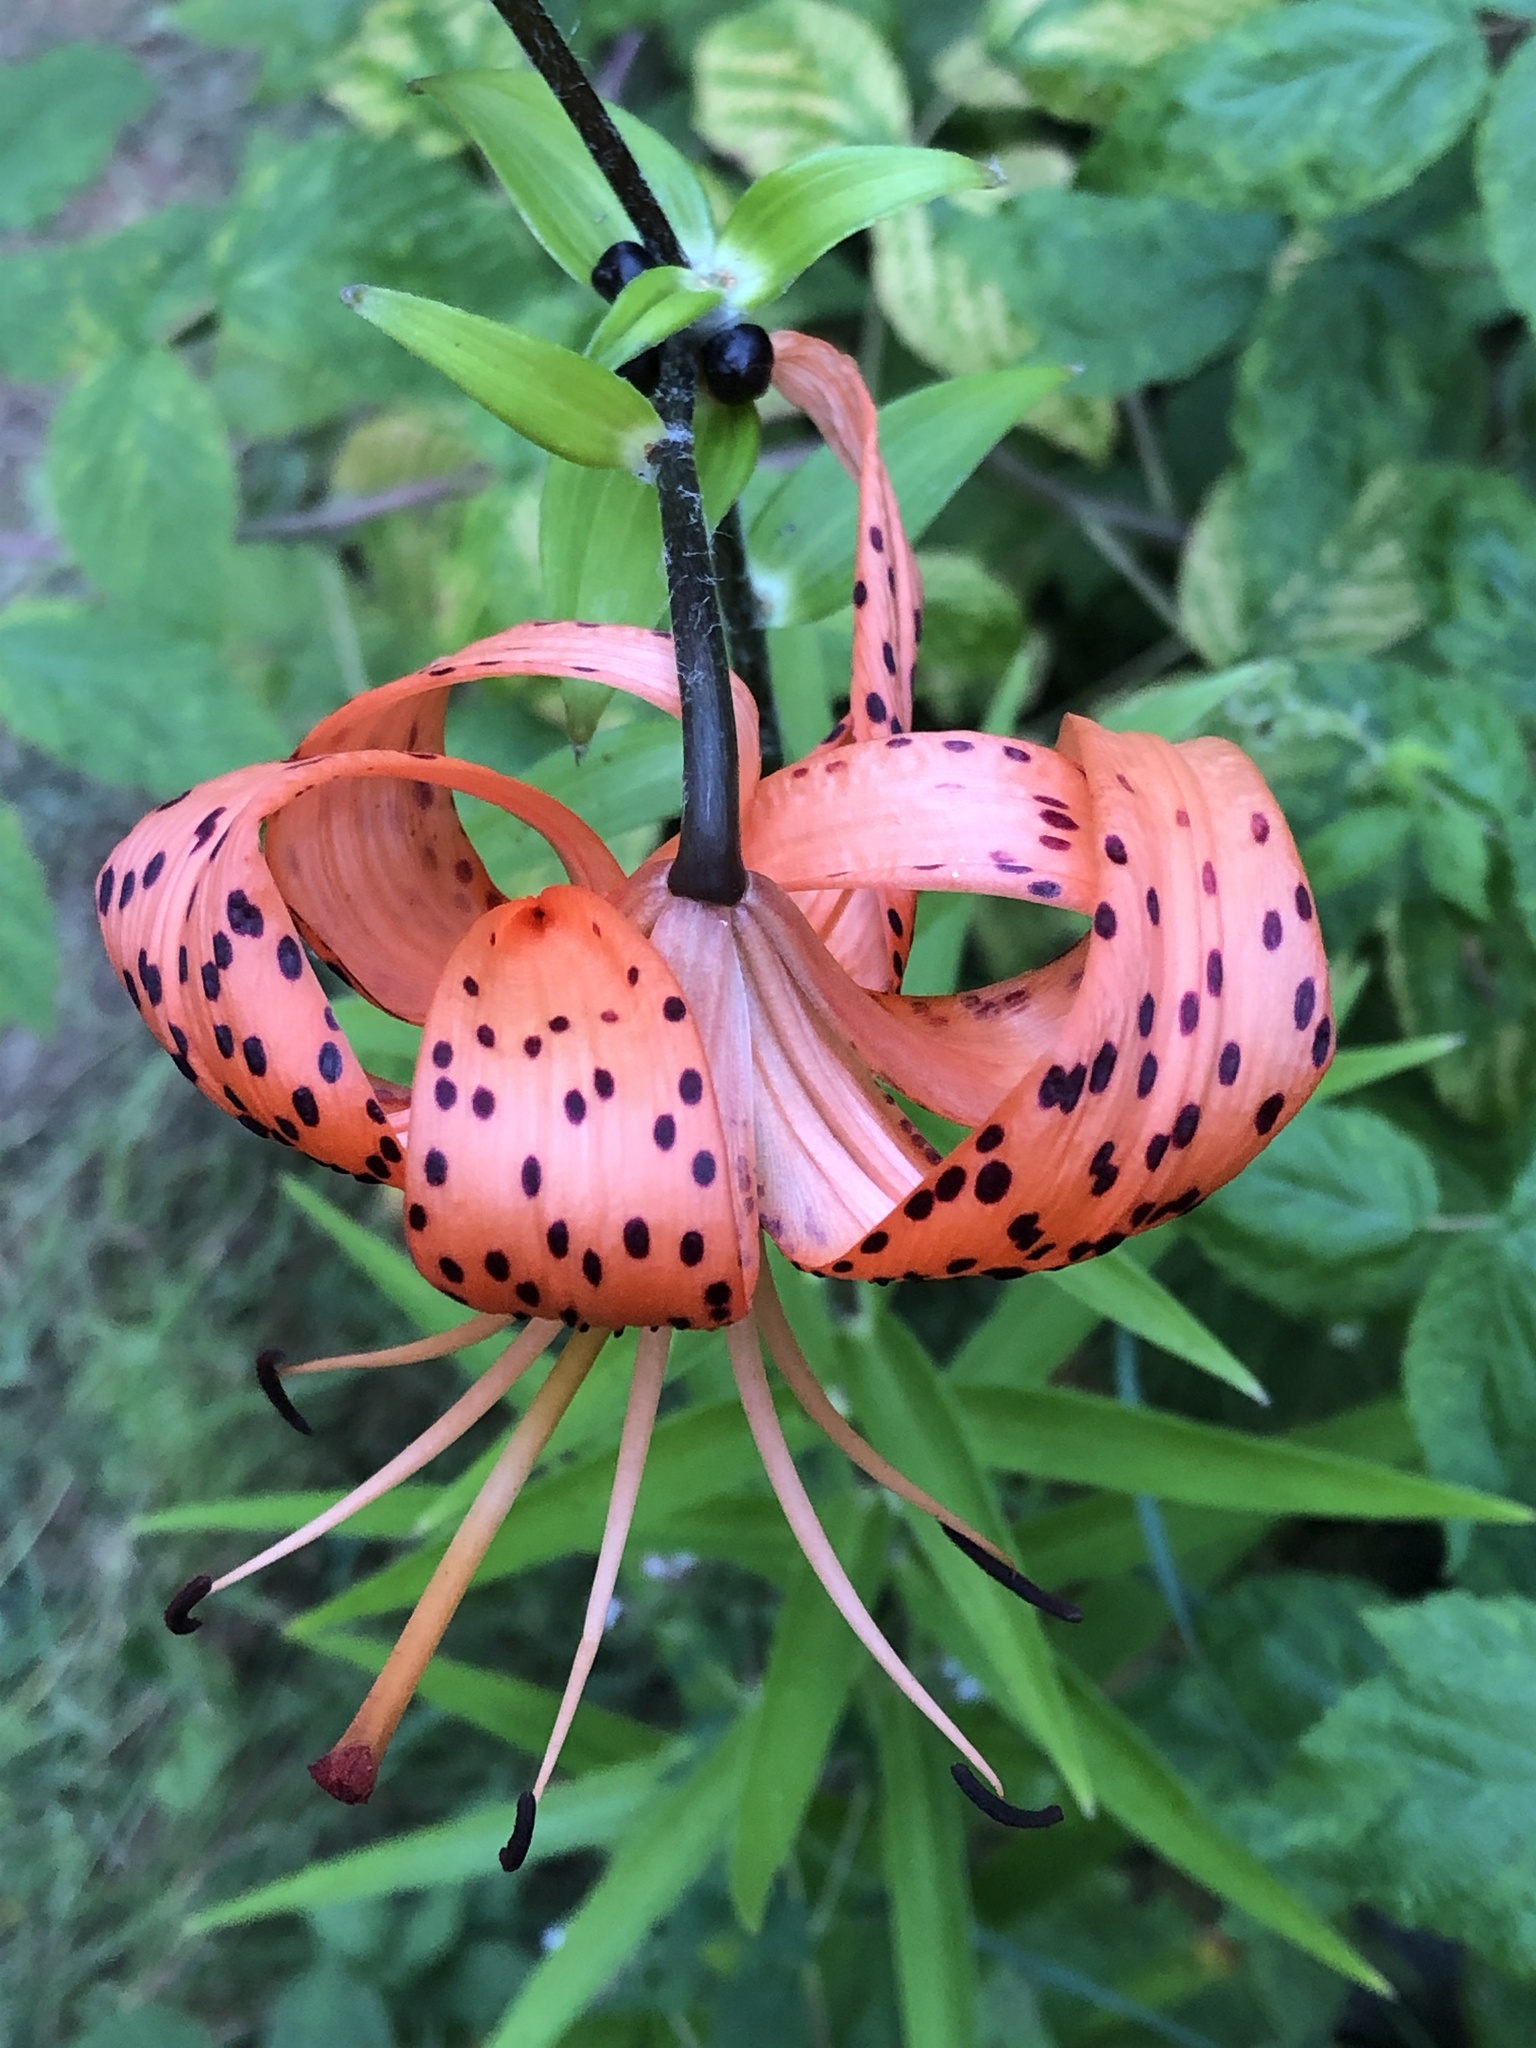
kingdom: Plantae
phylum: Tracheophyta
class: Liliopsida
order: Liliales
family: Liliaceae
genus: Lilium
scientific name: Lilium lancifolium
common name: Tiger lily
